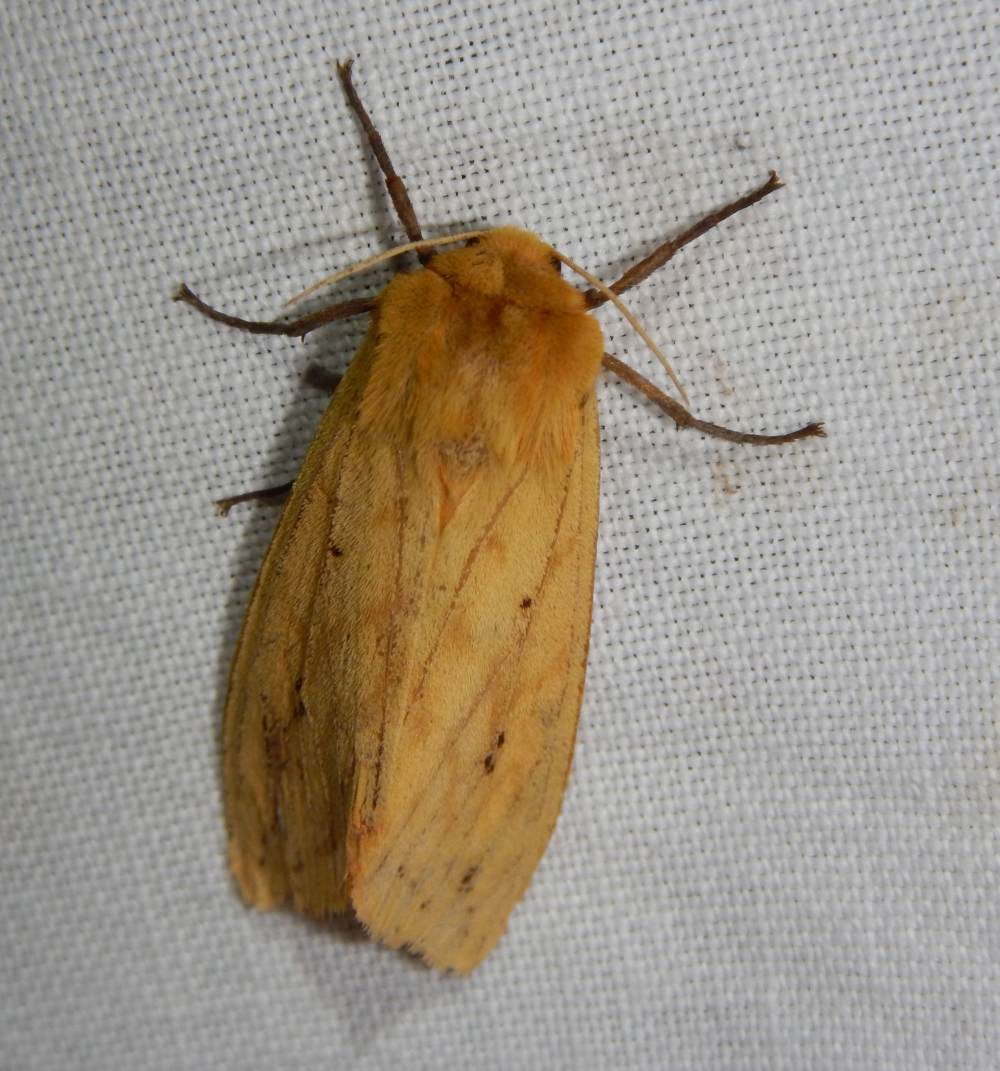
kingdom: Animalia
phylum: Arthropoda
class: Insecta
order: Lepidoptera
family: Erebidae
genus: Pyrrharctia
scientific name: Pyrrharctia isabella
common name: Isabella tiger moth
